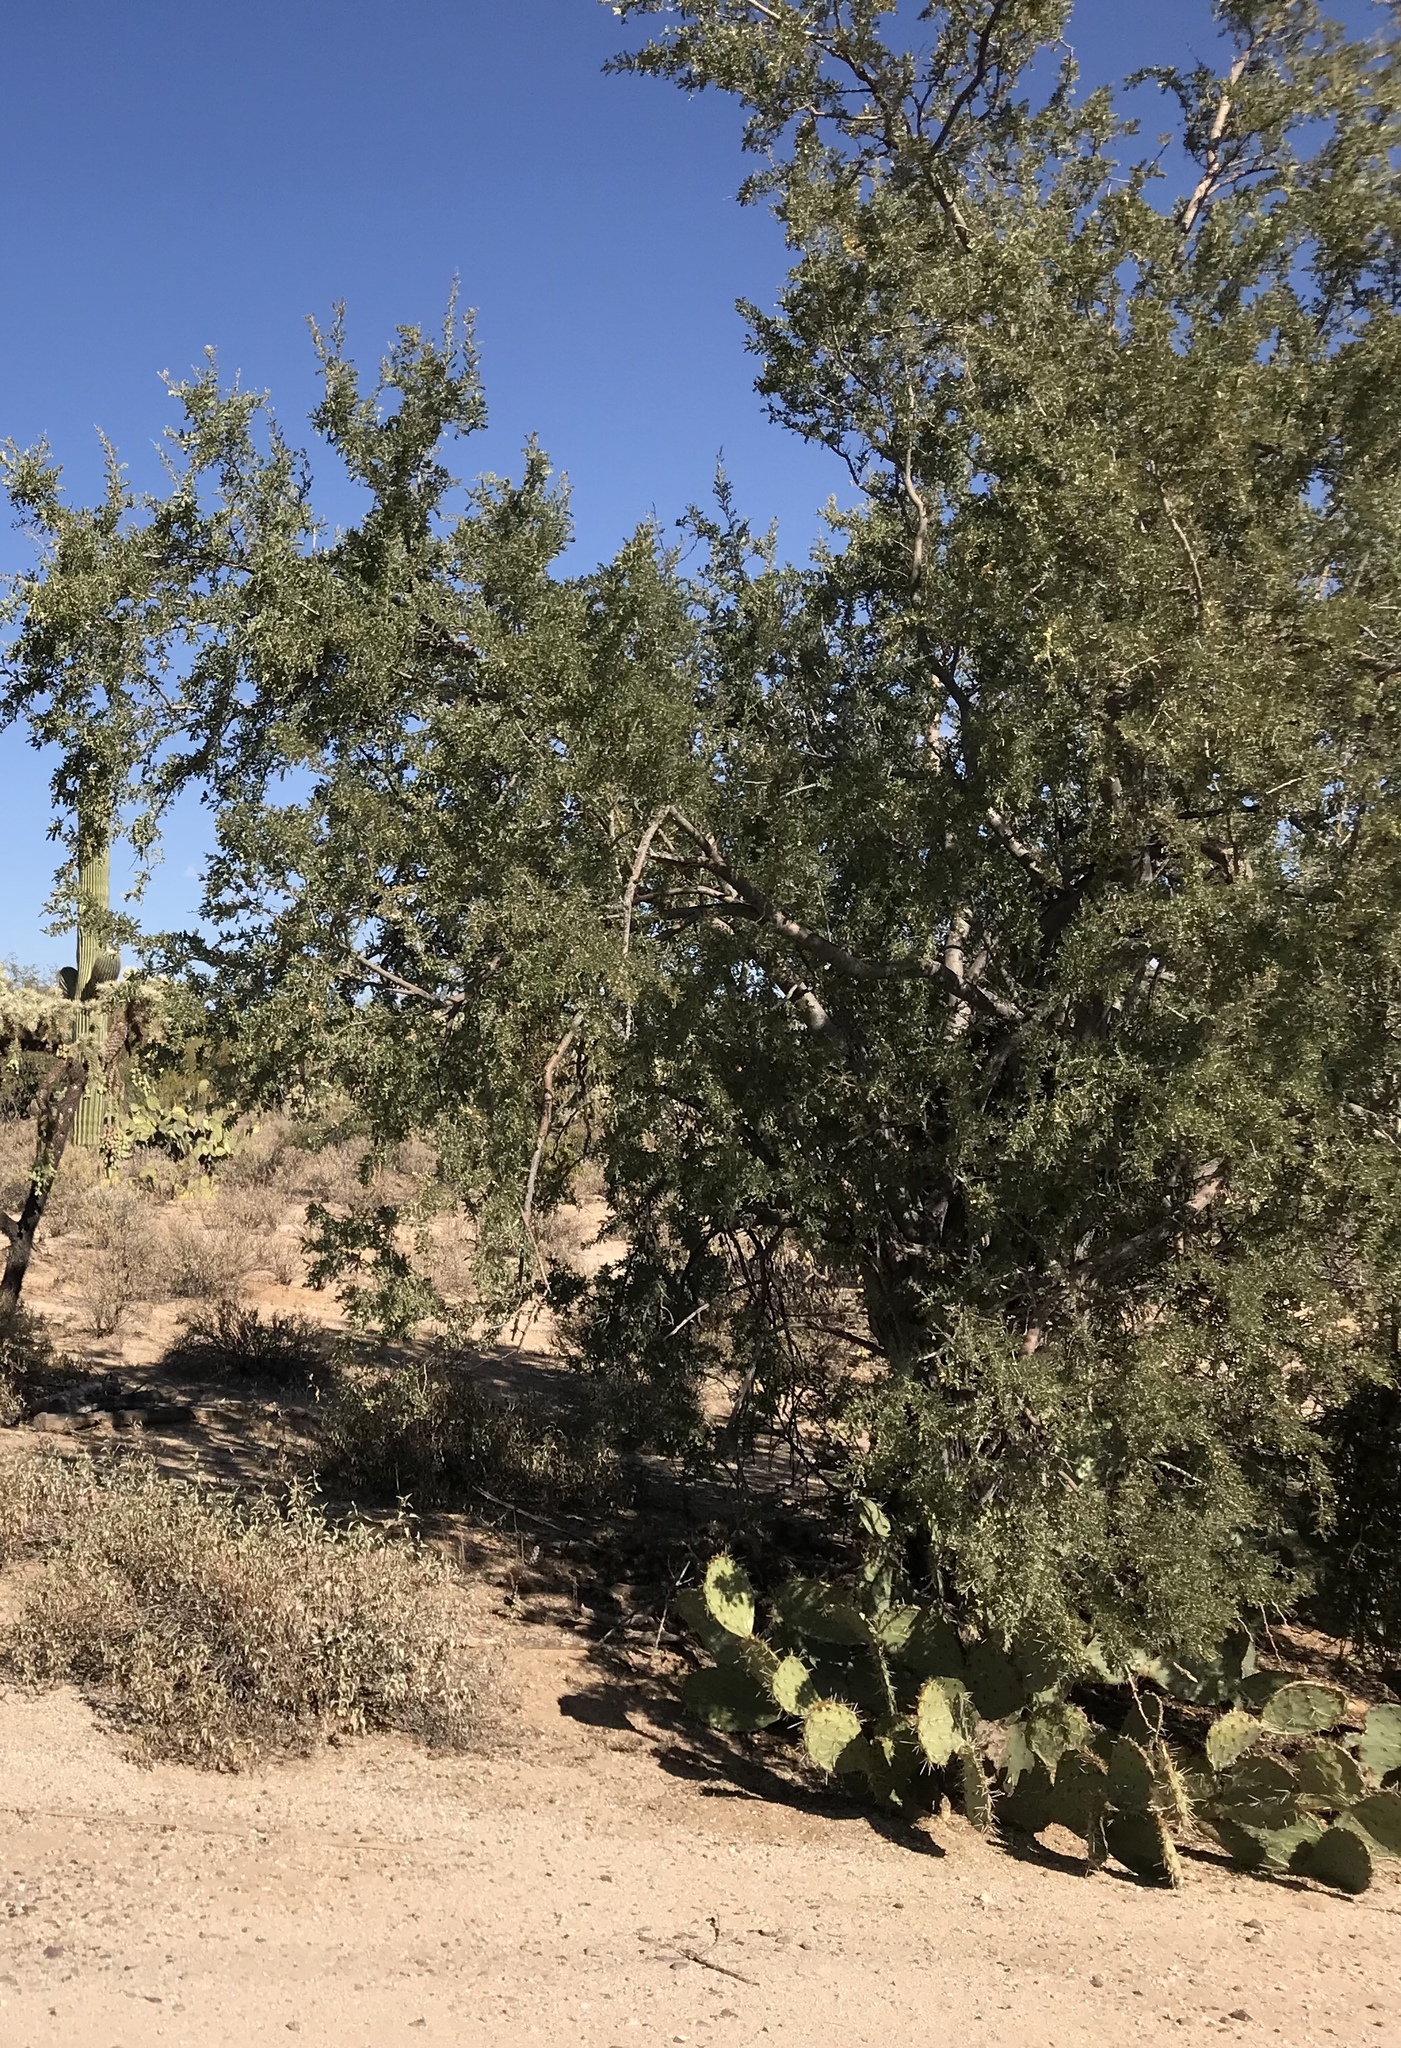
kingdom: Plantae
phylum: Tracheophyta
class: Magnoliopsida
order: Fabales
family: Fabaceae
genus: Olneya
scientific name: Olneya tesota
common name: Desert ironwood
